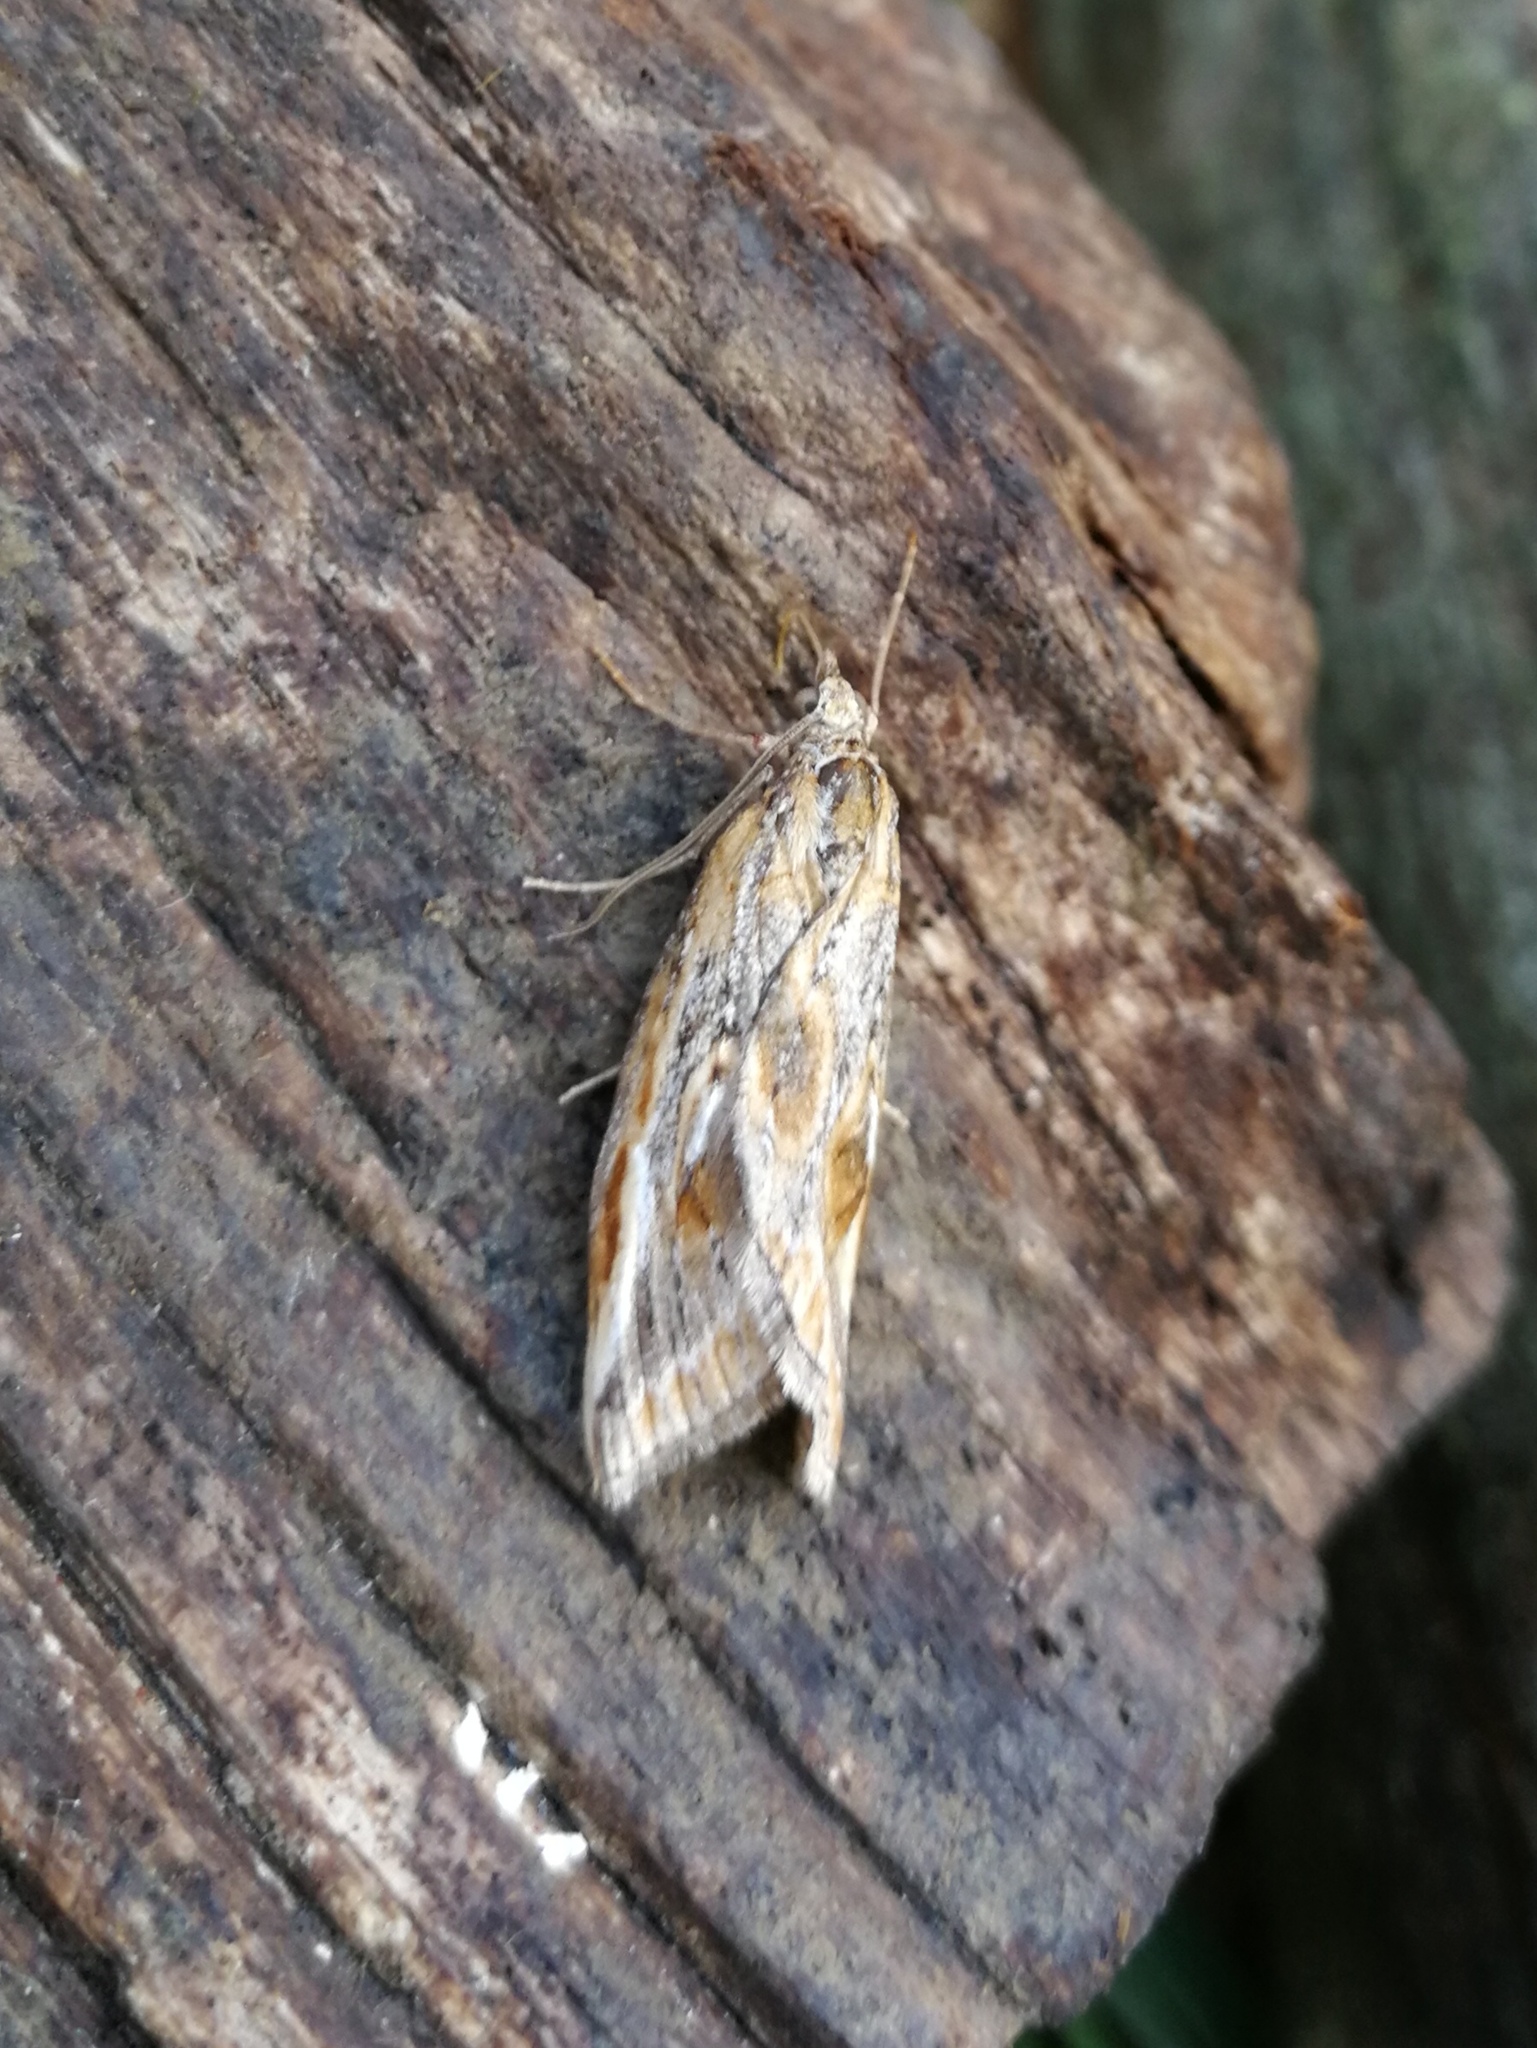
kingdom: Animalia
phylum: Arthropoda
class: Insecta
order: Lepidoptera
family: Geometridae
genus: Chesias
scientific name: Chesias legatella
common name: Streak
